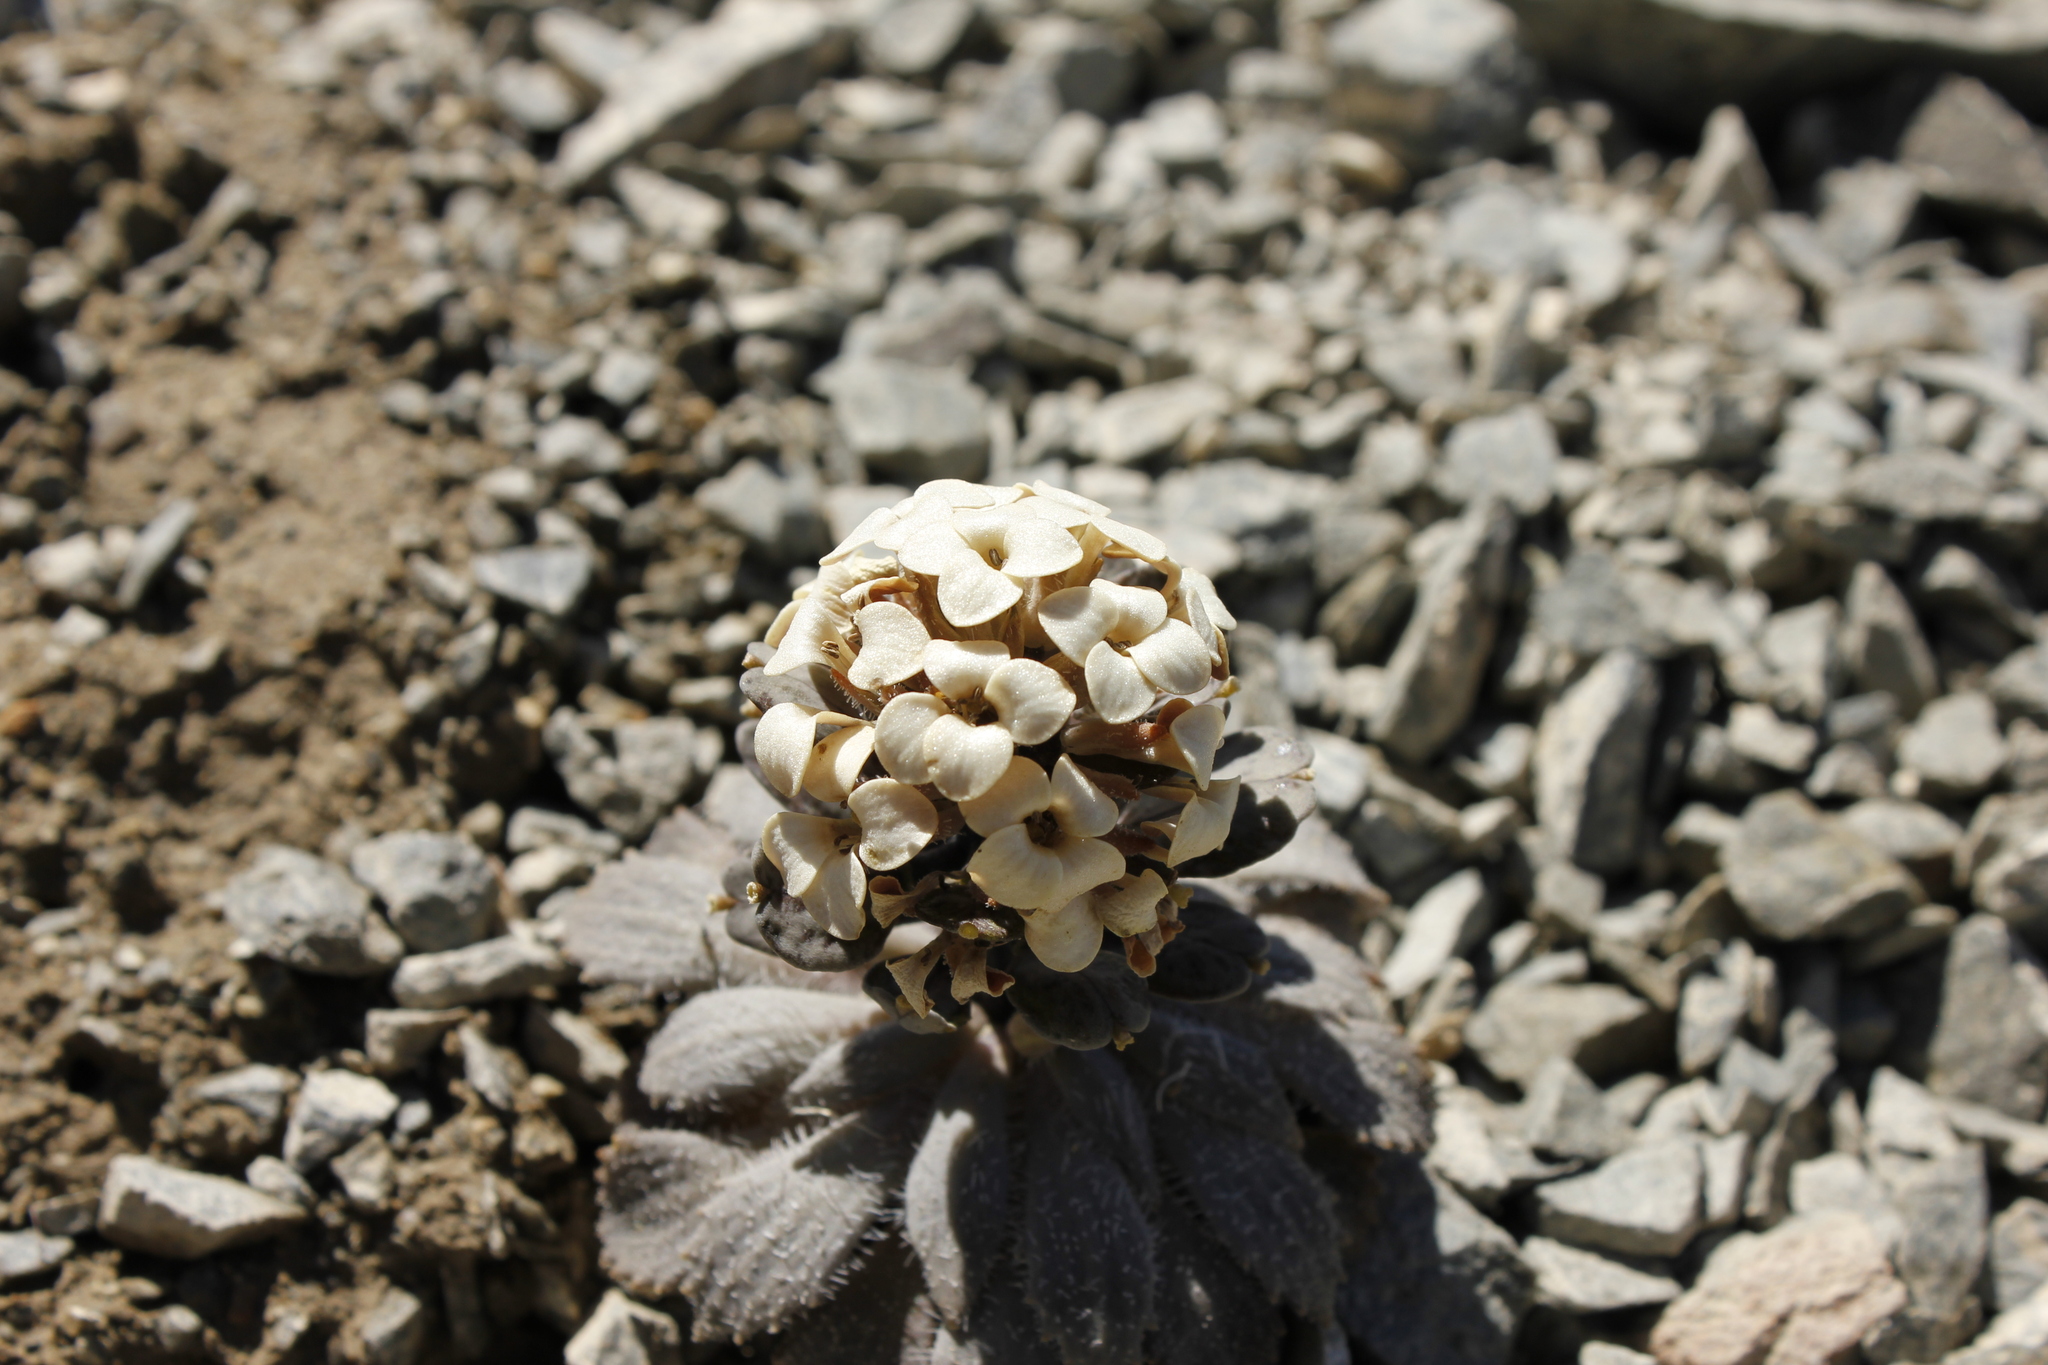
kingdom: Plantae
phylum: Tracheophyta
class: Magnoliopsida
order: Brassicales
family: Brassicaceae
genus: Notothlaspi
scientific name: Notothlaspi rosulatum
